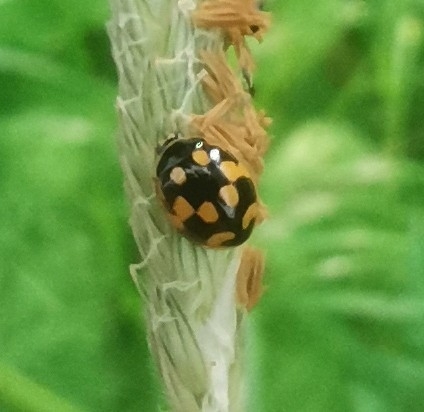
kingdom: Animalia
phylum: Arthropoda
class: Insecta
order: Coleoptera
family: Coccinellidae
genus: Propylaea
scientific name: Propylaea quatuordecimpunctata
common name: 14-spotted ladybird beetle
